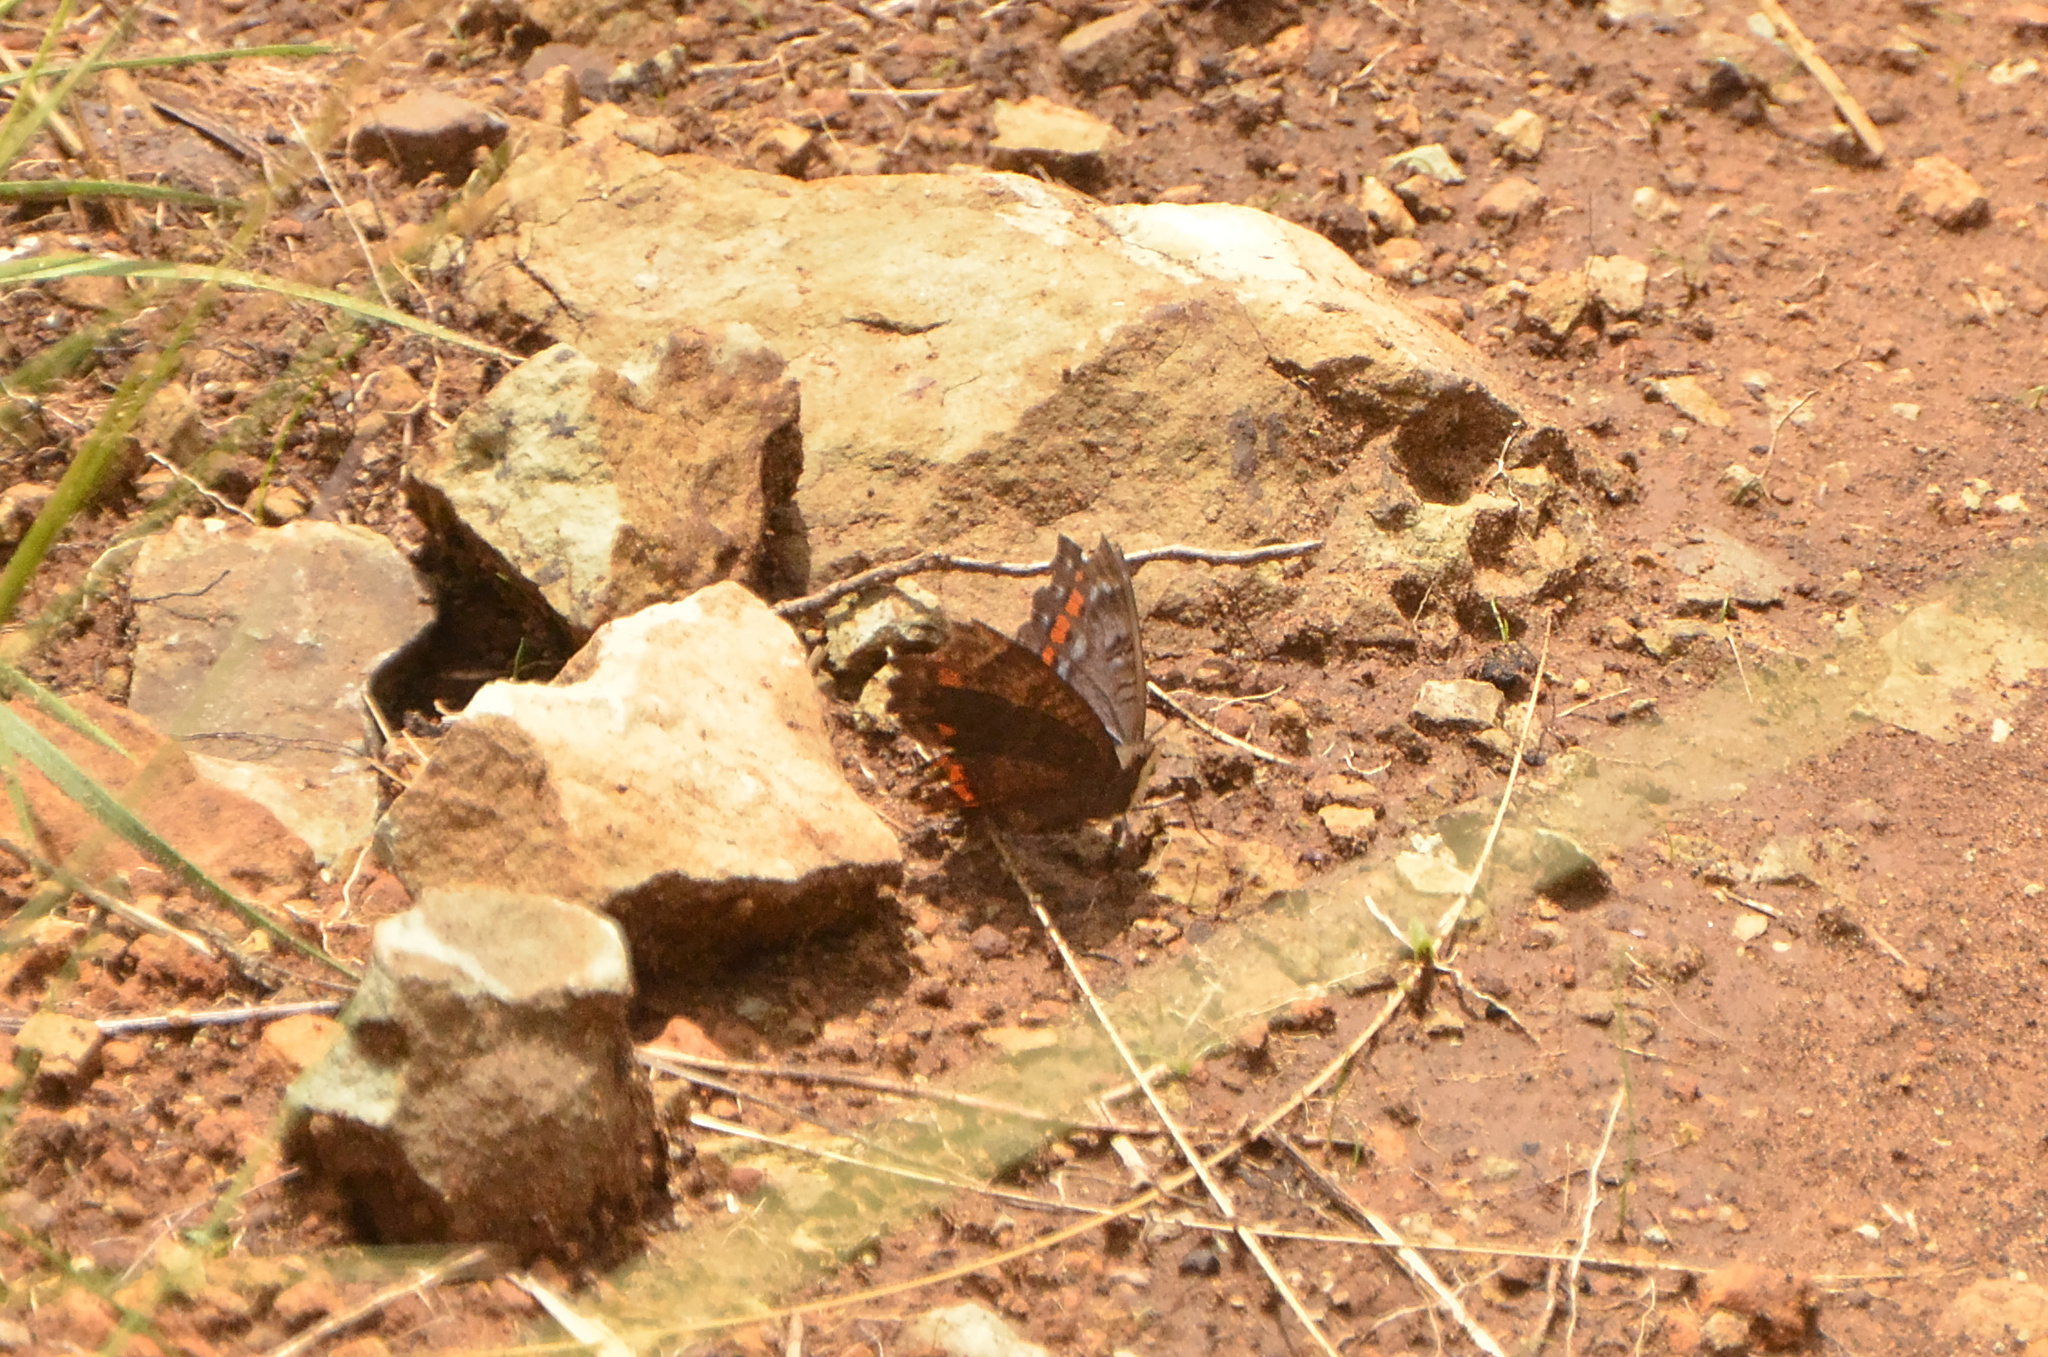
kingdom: Animalia
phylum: Arthropoda
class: Insecta
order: Lepidoptera
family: Nymphalidae
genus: Precis
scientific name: Precis octavia
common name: Gaudy commodore
